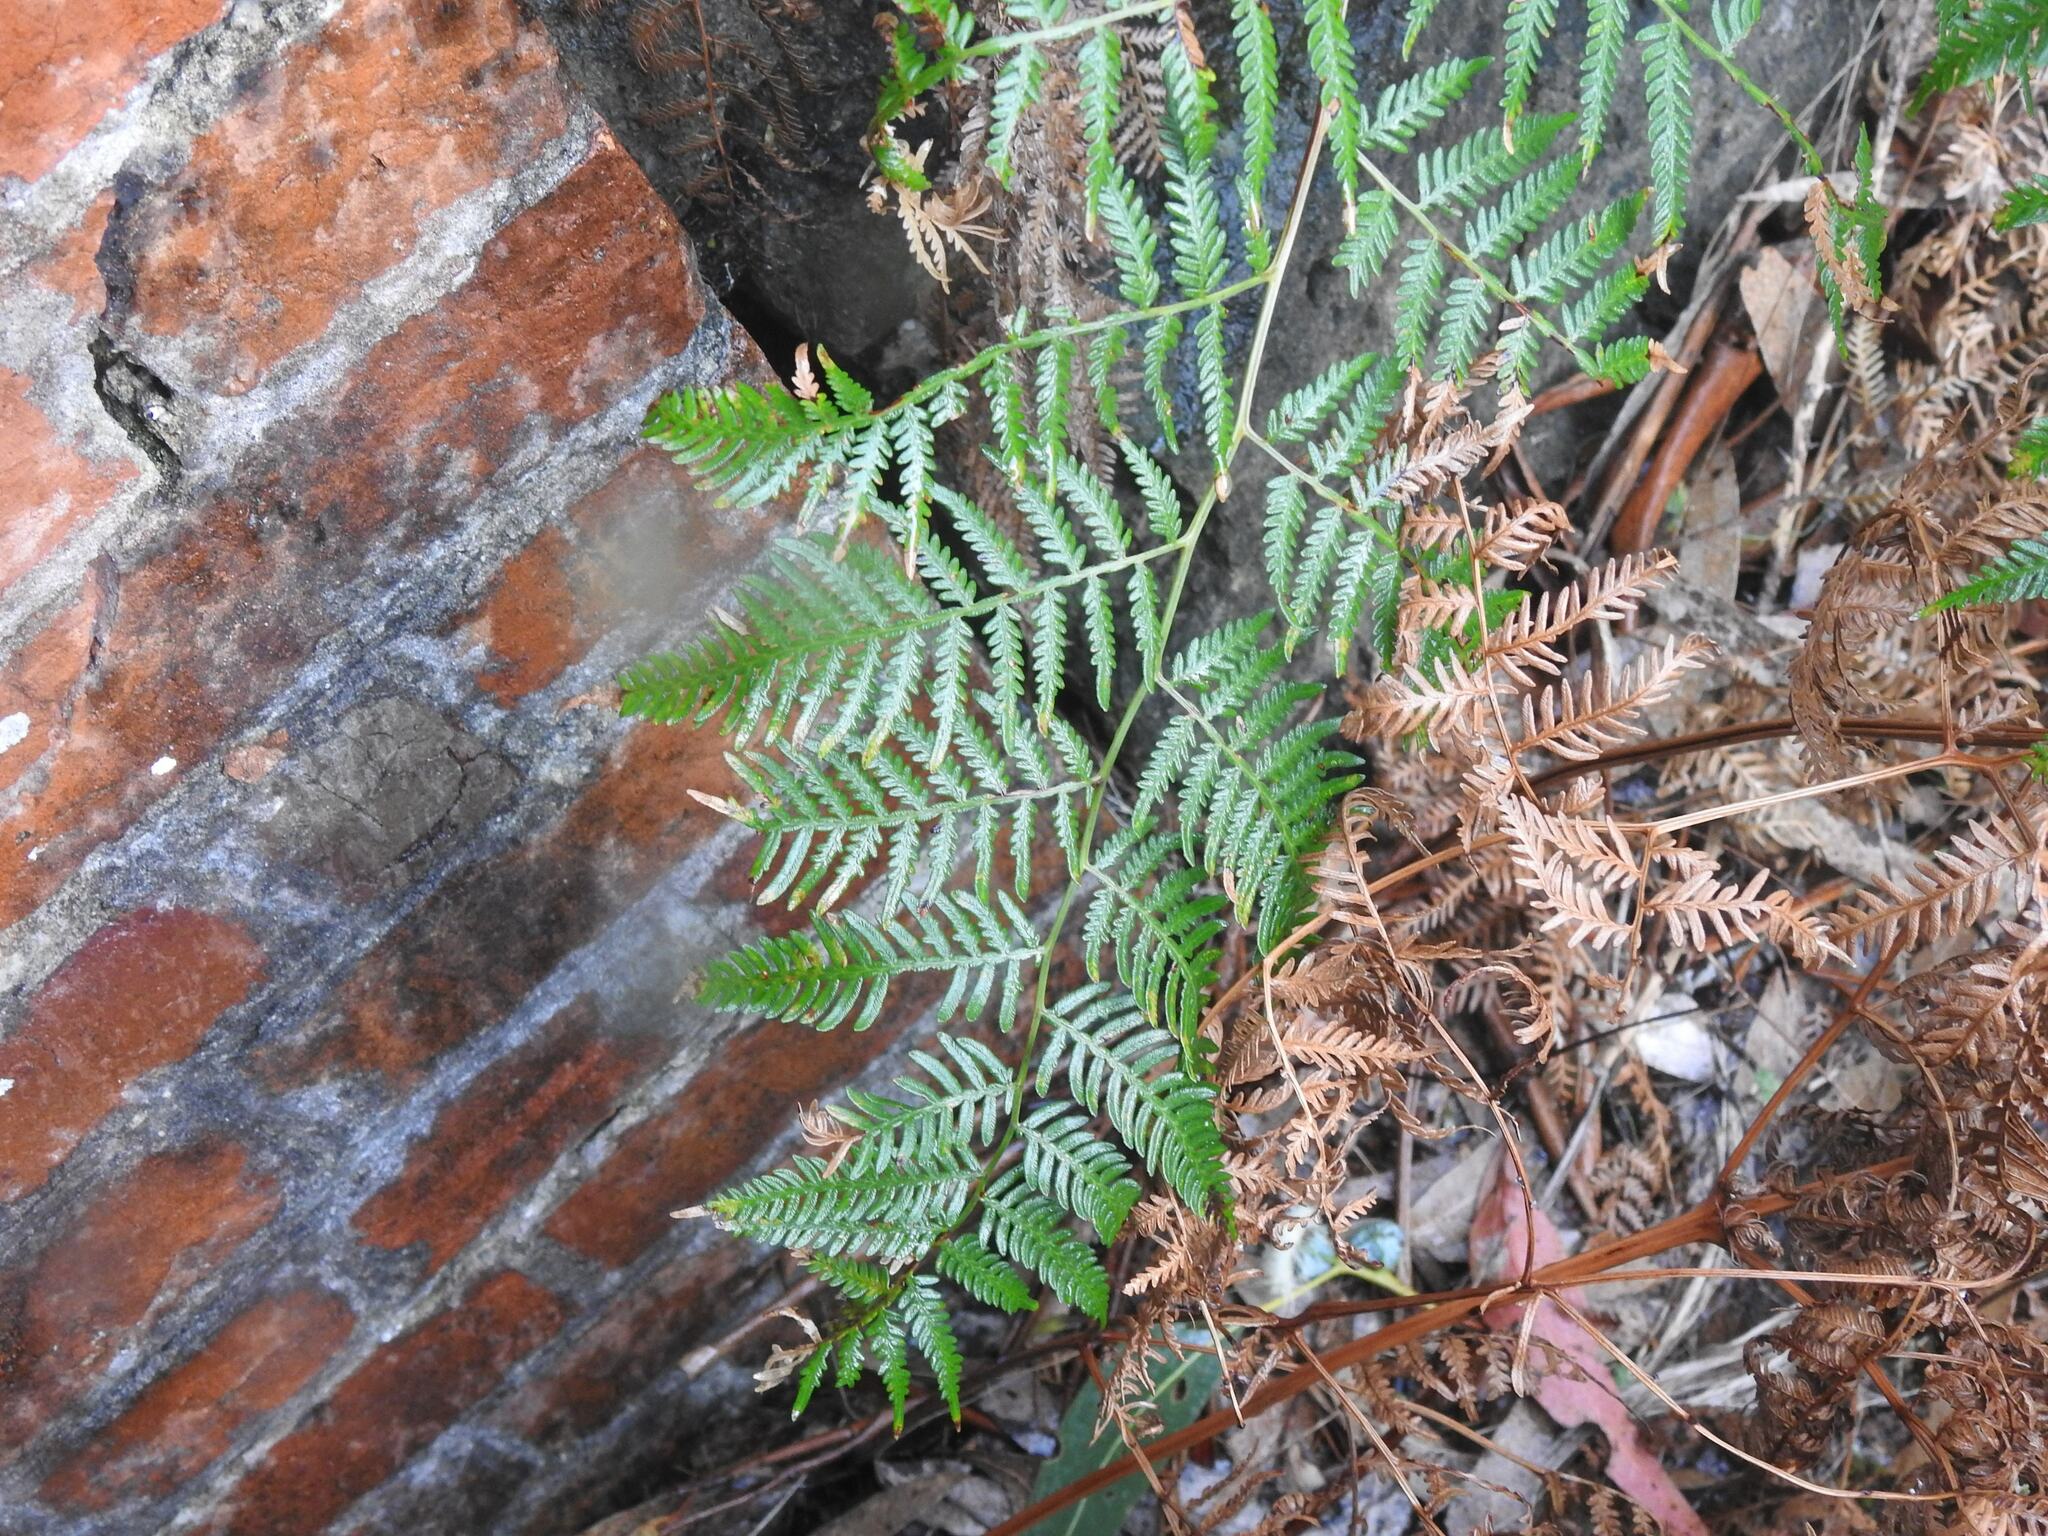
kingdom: Plantae
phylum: Tracheophyta
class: Polypodiopsida
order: Polypodiales
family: Dennstaedtiaceae
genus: Pteridium
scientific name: Pteridium esculentum
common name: Bracken fern
